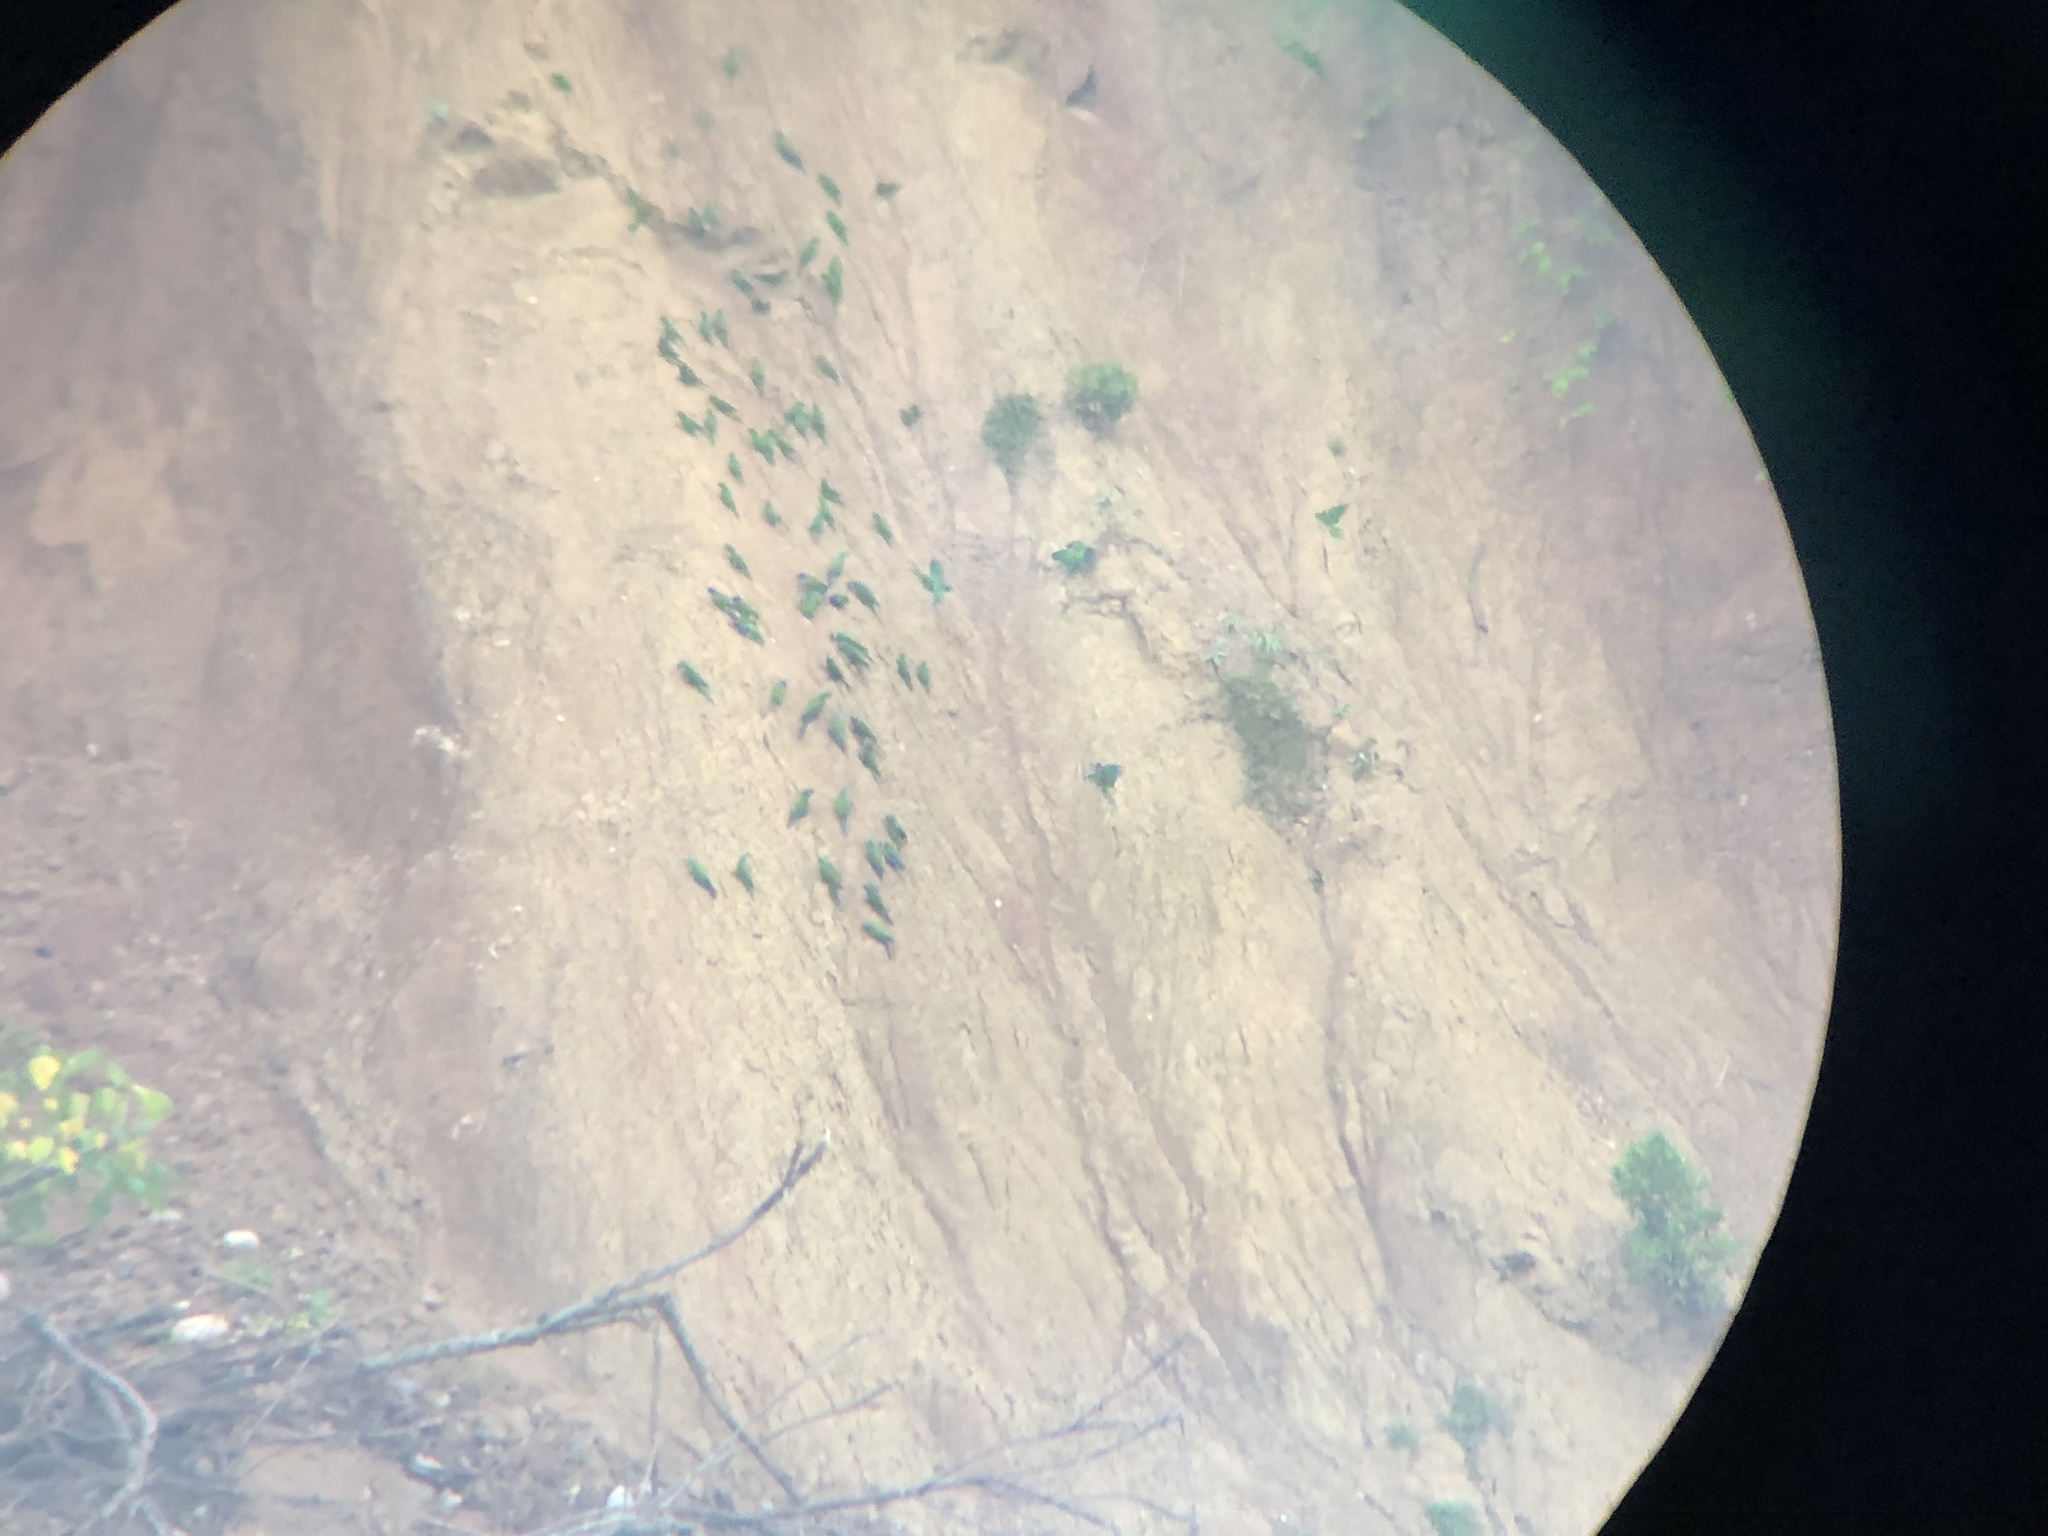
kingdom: Animalia
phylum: Chordata
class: Aves
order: Psittaciformes
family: Psittacidae
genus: Pionus
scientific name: Pionus menstruus
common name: Blue-headed parrot
